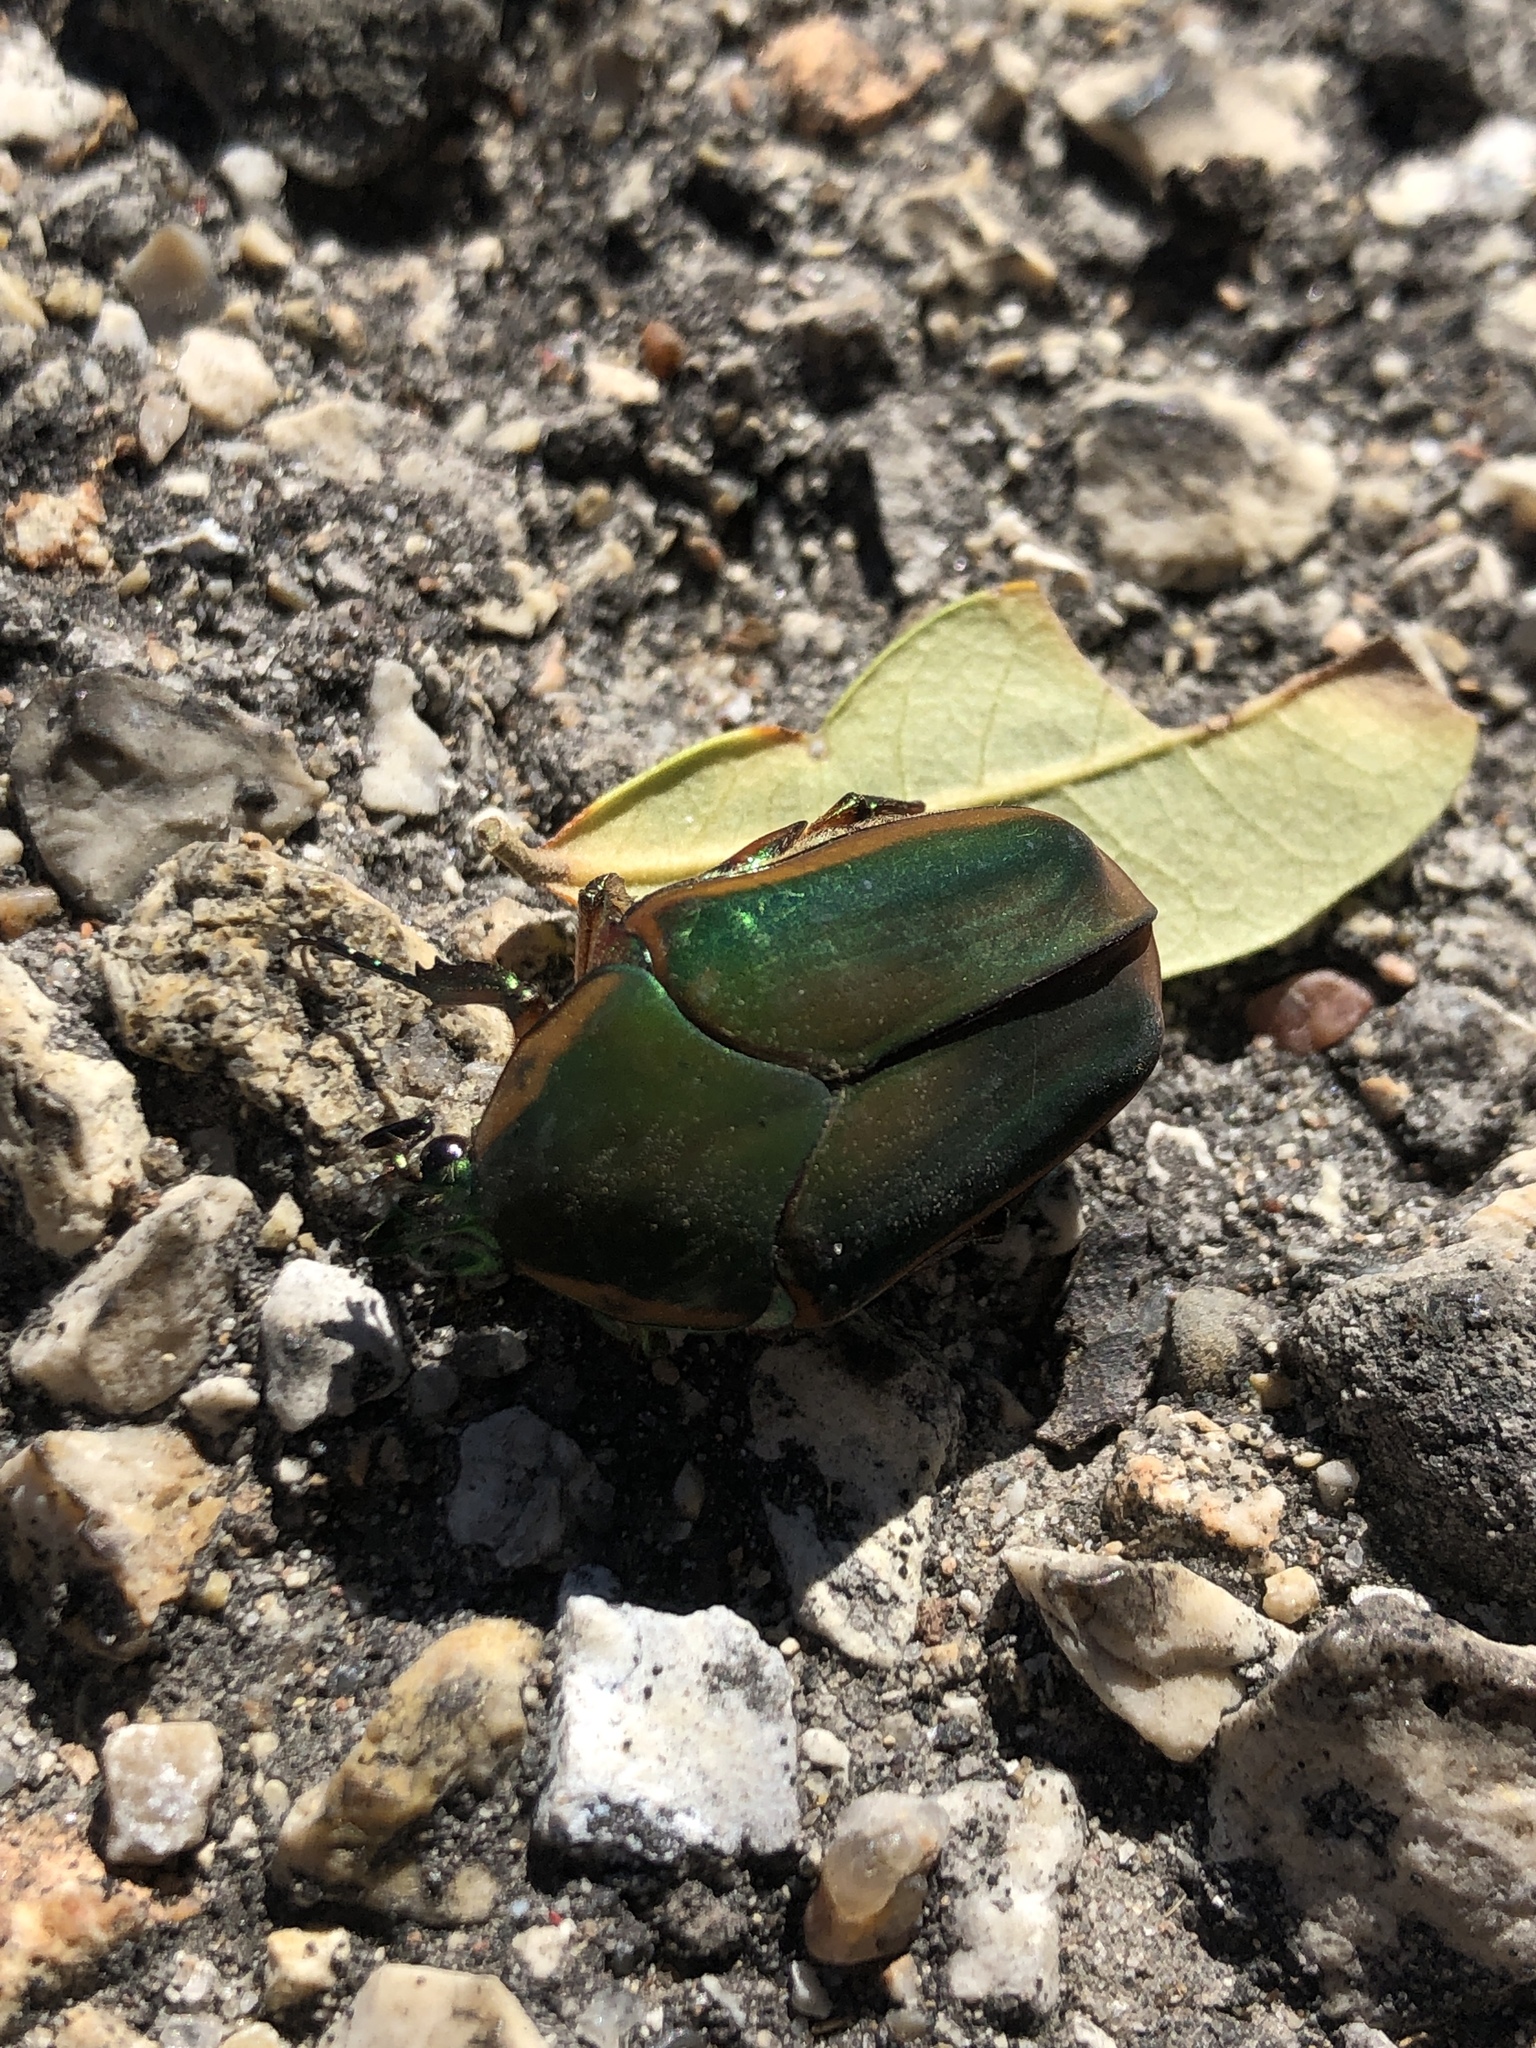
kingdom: Animalia
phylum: Arthropoda
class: Insecta
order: Coleoptera
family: Scarabaeidae
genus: Cotinis
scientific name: Cotinis nitida
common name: Common green june beetle
